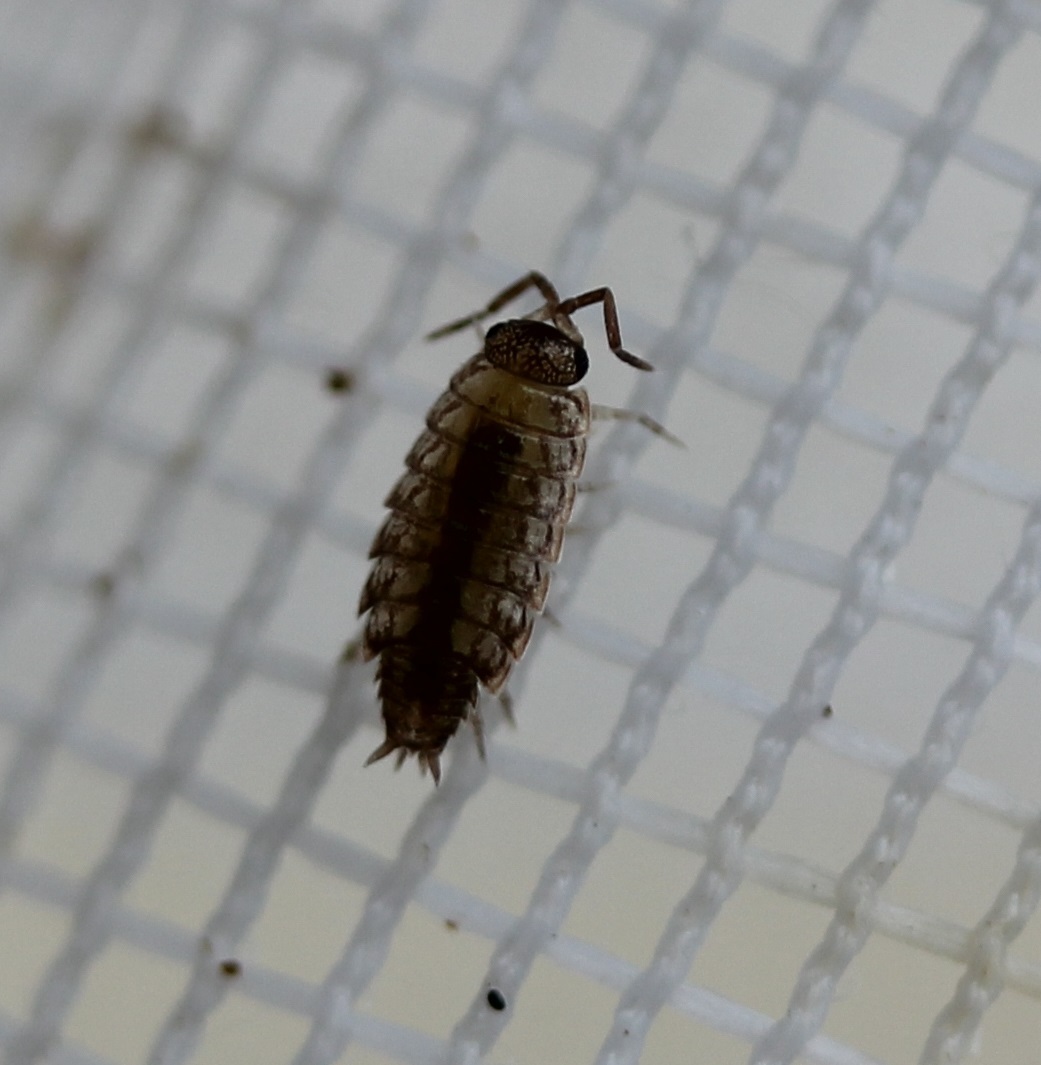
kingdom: Animalia
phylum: Arthropoda
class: Malacostraca
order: Isopoda
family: Philosciidae
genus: Philoscia
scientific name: Philoscia muscorum
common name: Common striped woodlouse
